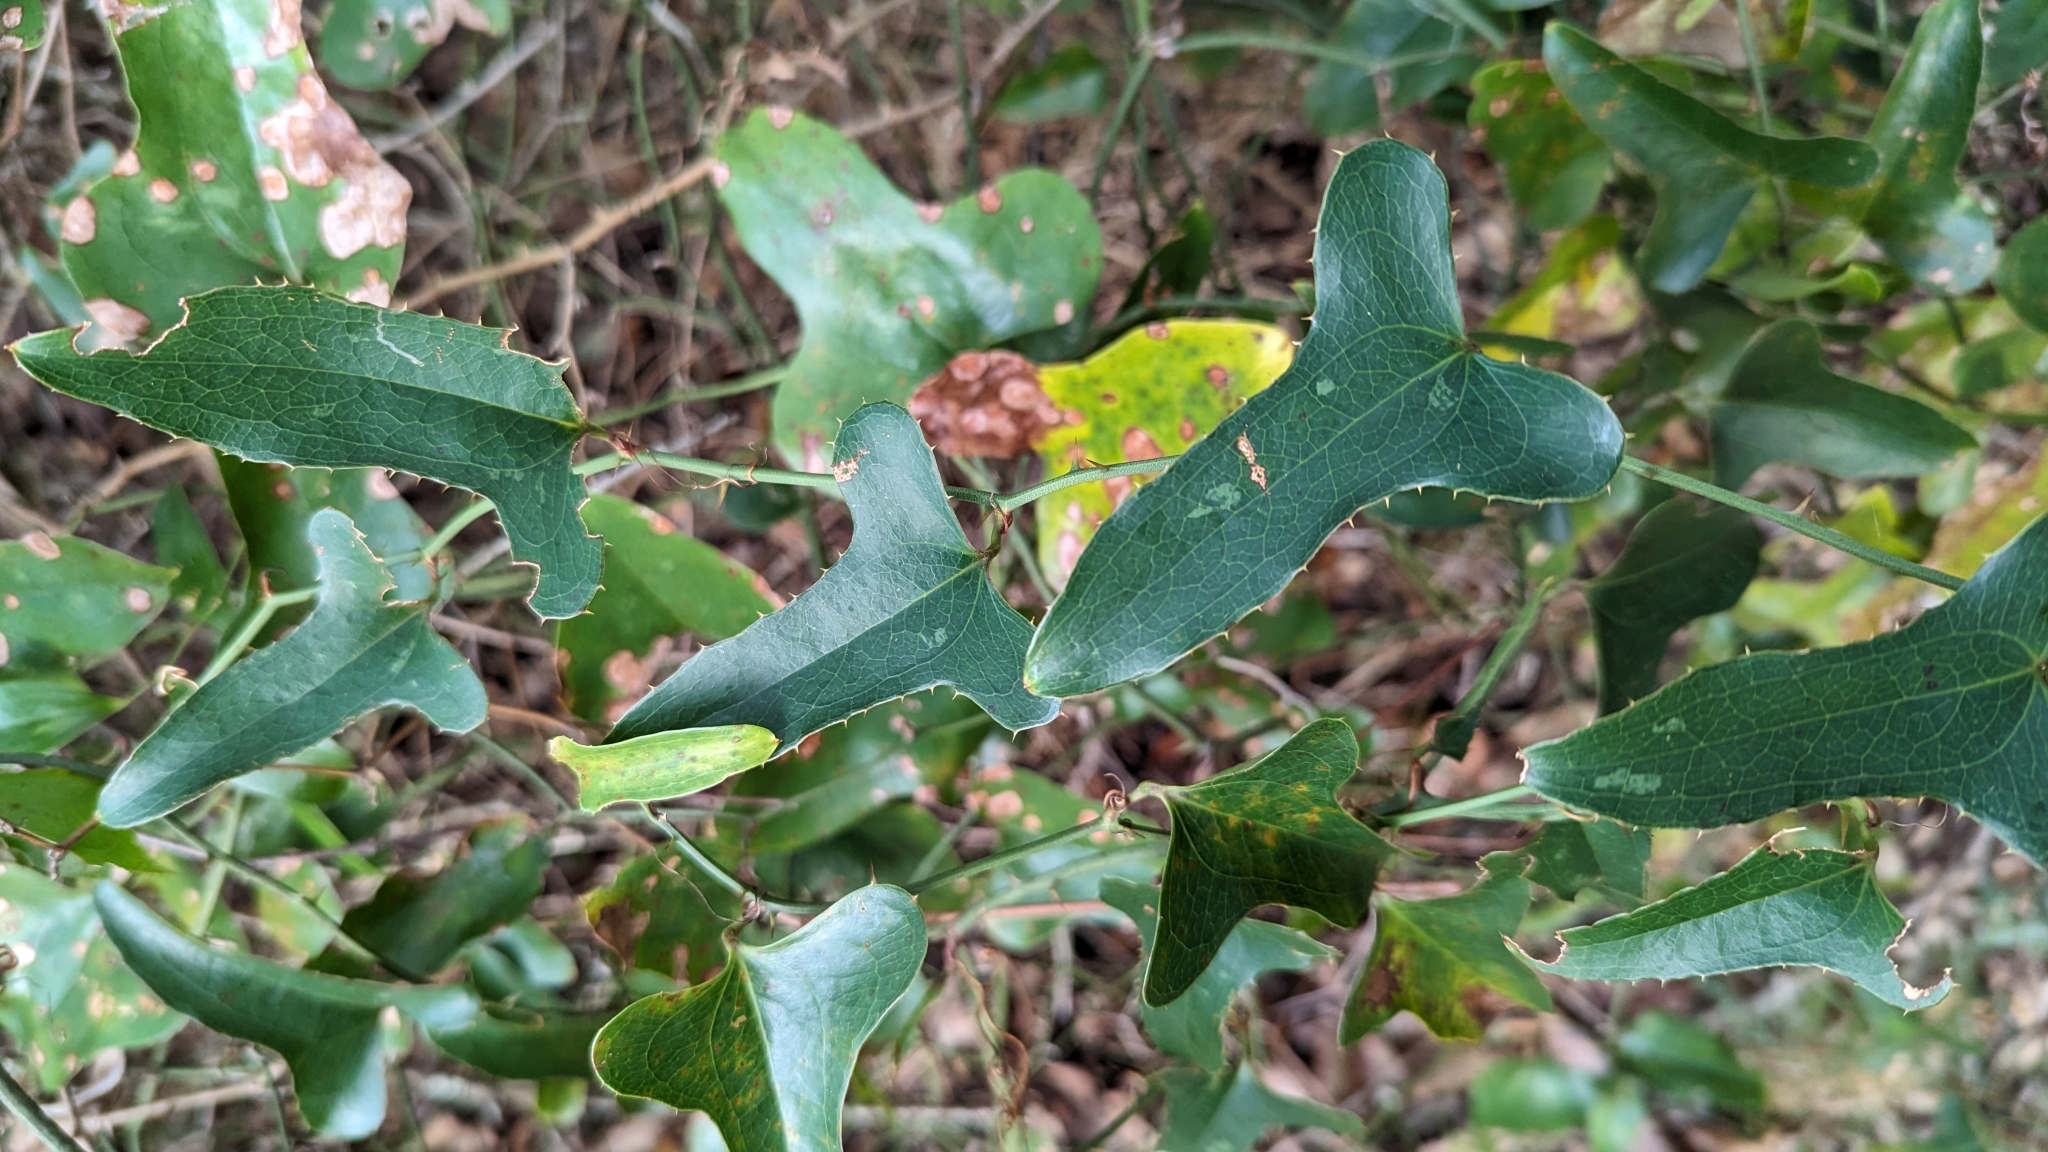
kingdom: Plantae
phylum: Tracheophyta
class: Liliopsida
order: Liliales
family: Smilacaceae
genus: Smilax
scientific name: Smilax bona-nox
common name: Catbrier
